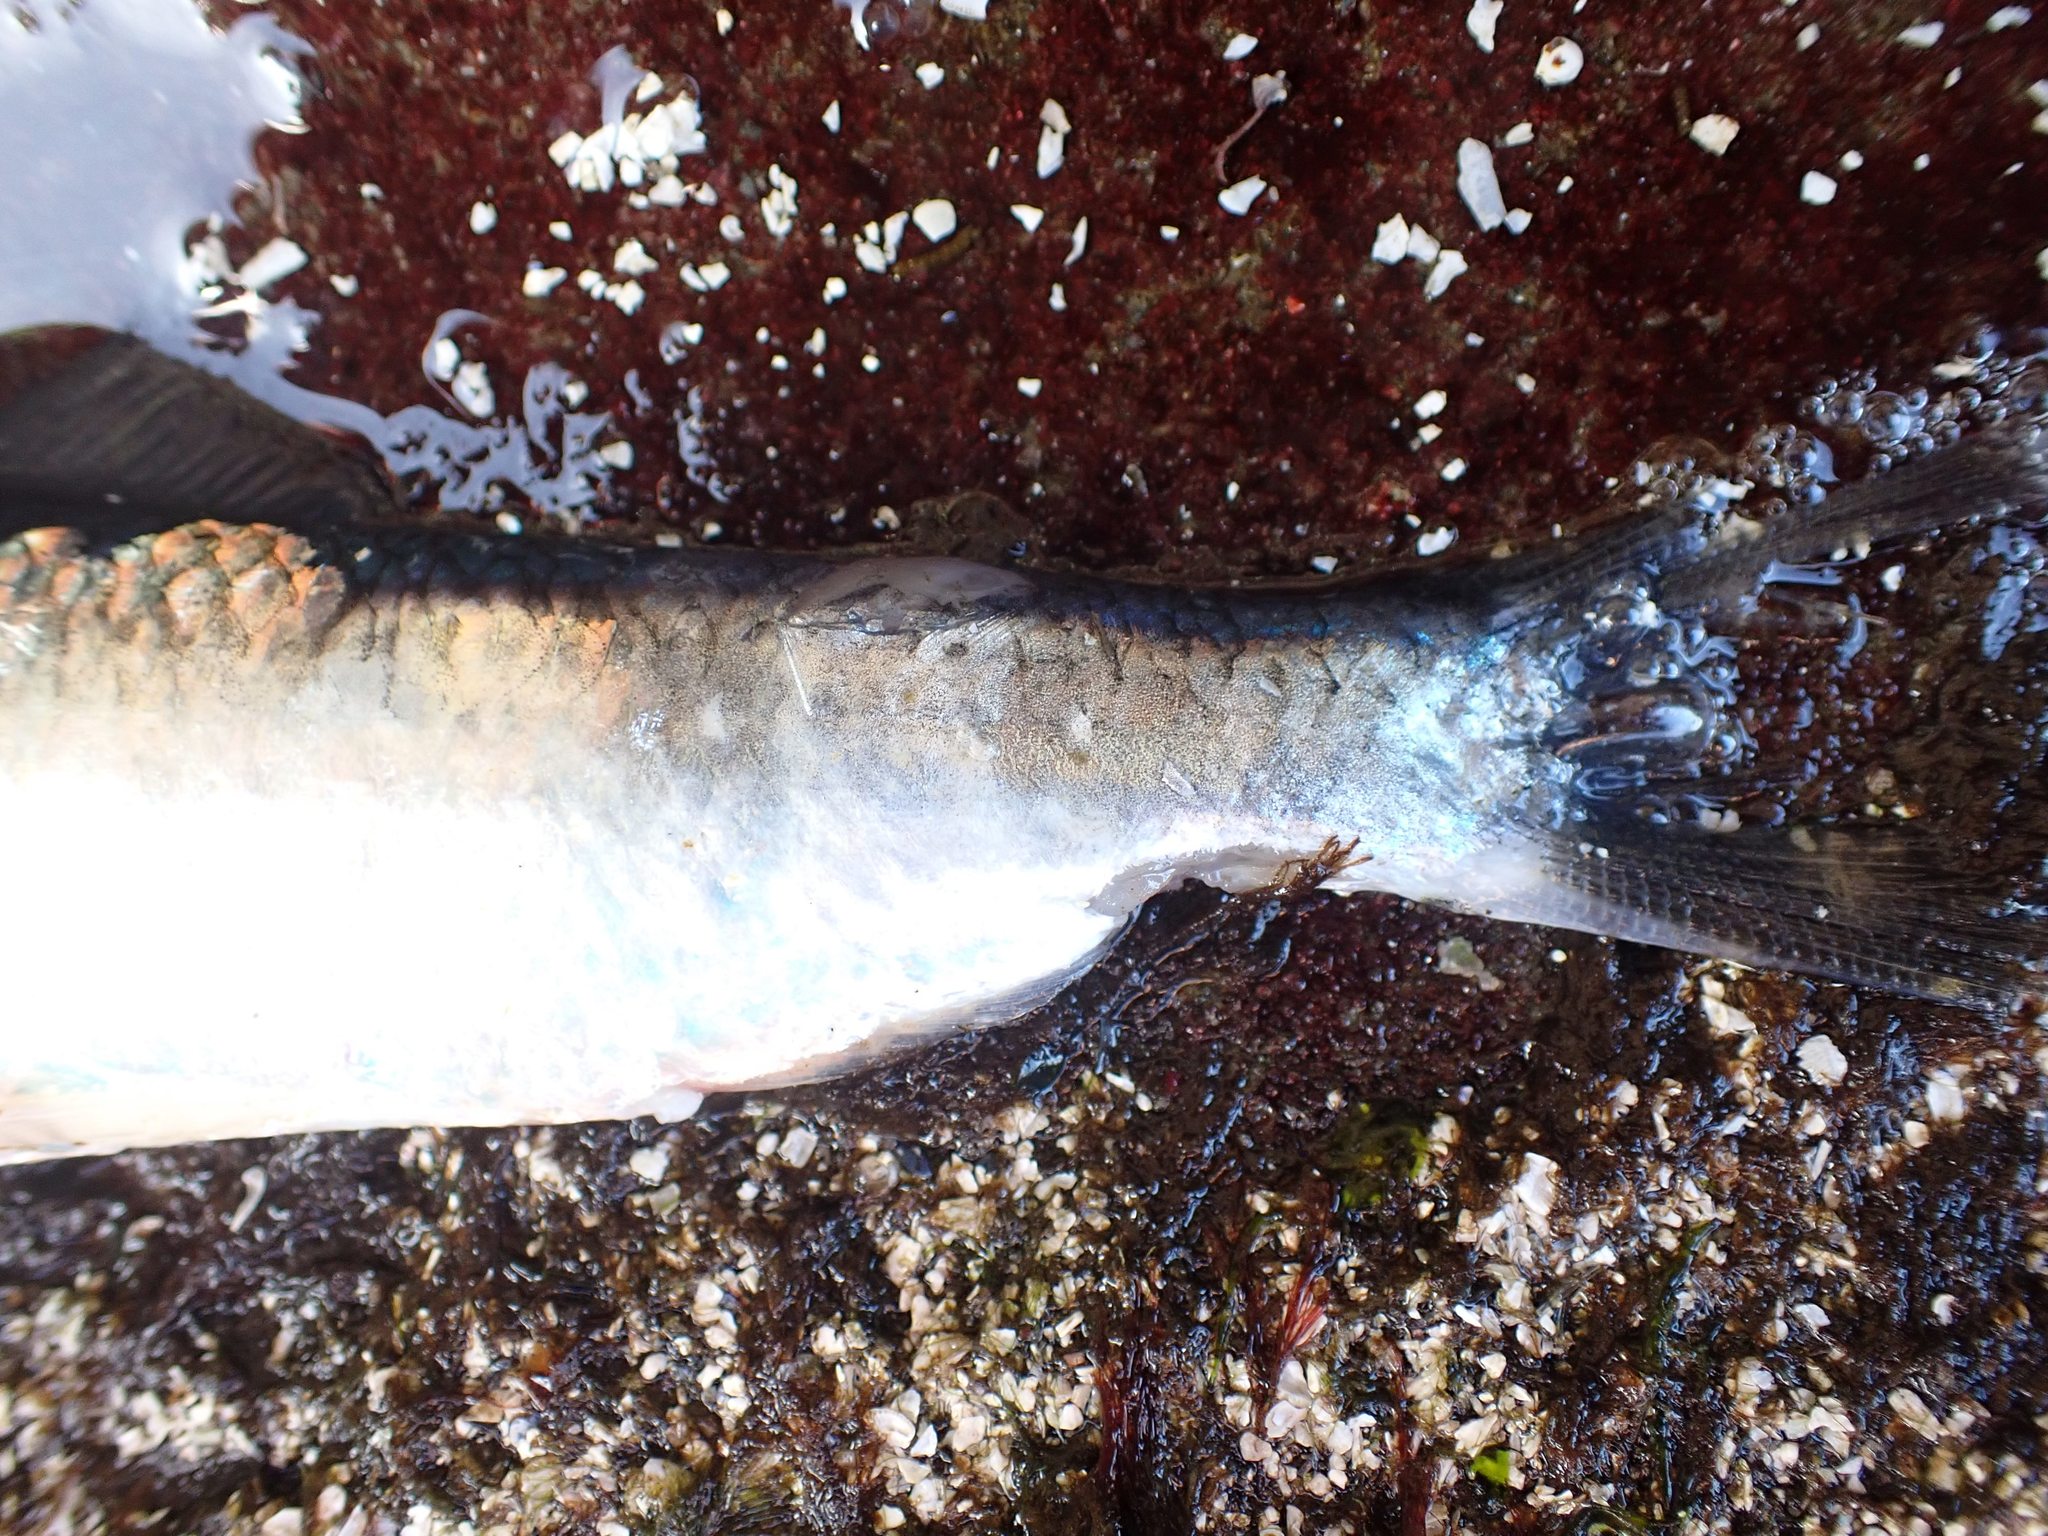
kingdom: Animalia
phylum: Chordata
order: Clupeiformes
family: Clupeidae
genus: Clupea
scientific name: Clupea pallasii
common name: Pacific herring
